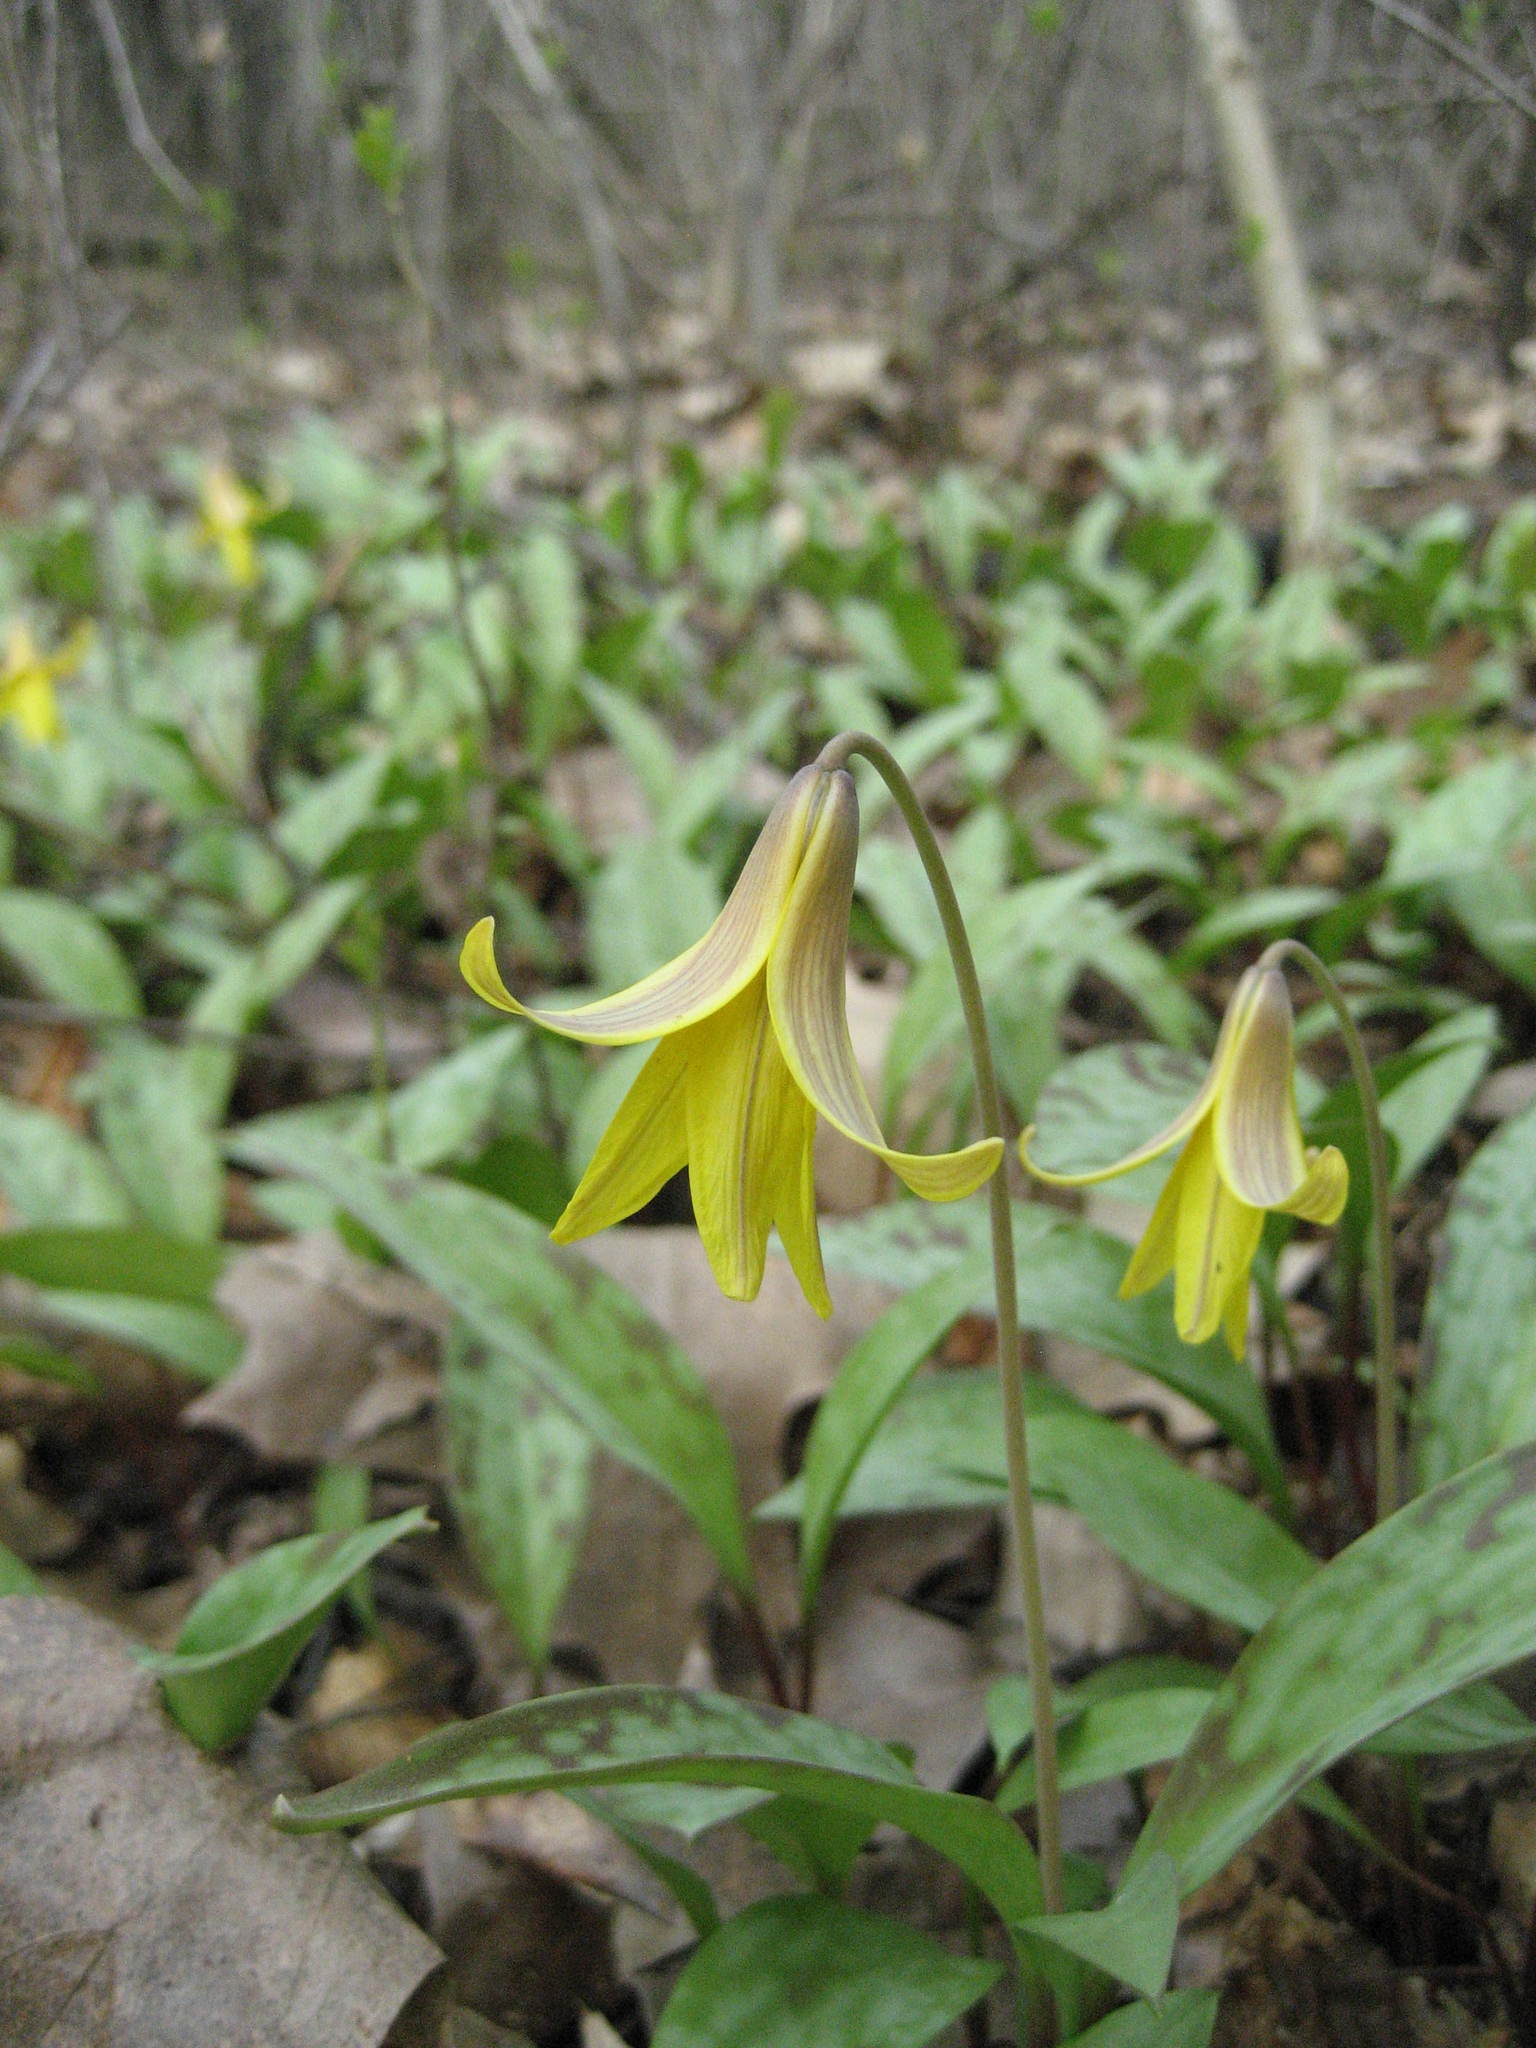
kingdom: Plantae
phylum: Tracheophyta
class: Liliopsida
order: Liliales
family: Liliaceae
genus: Erythronium
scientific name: Erythronium americanum
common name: Yellow adder's-tongue
